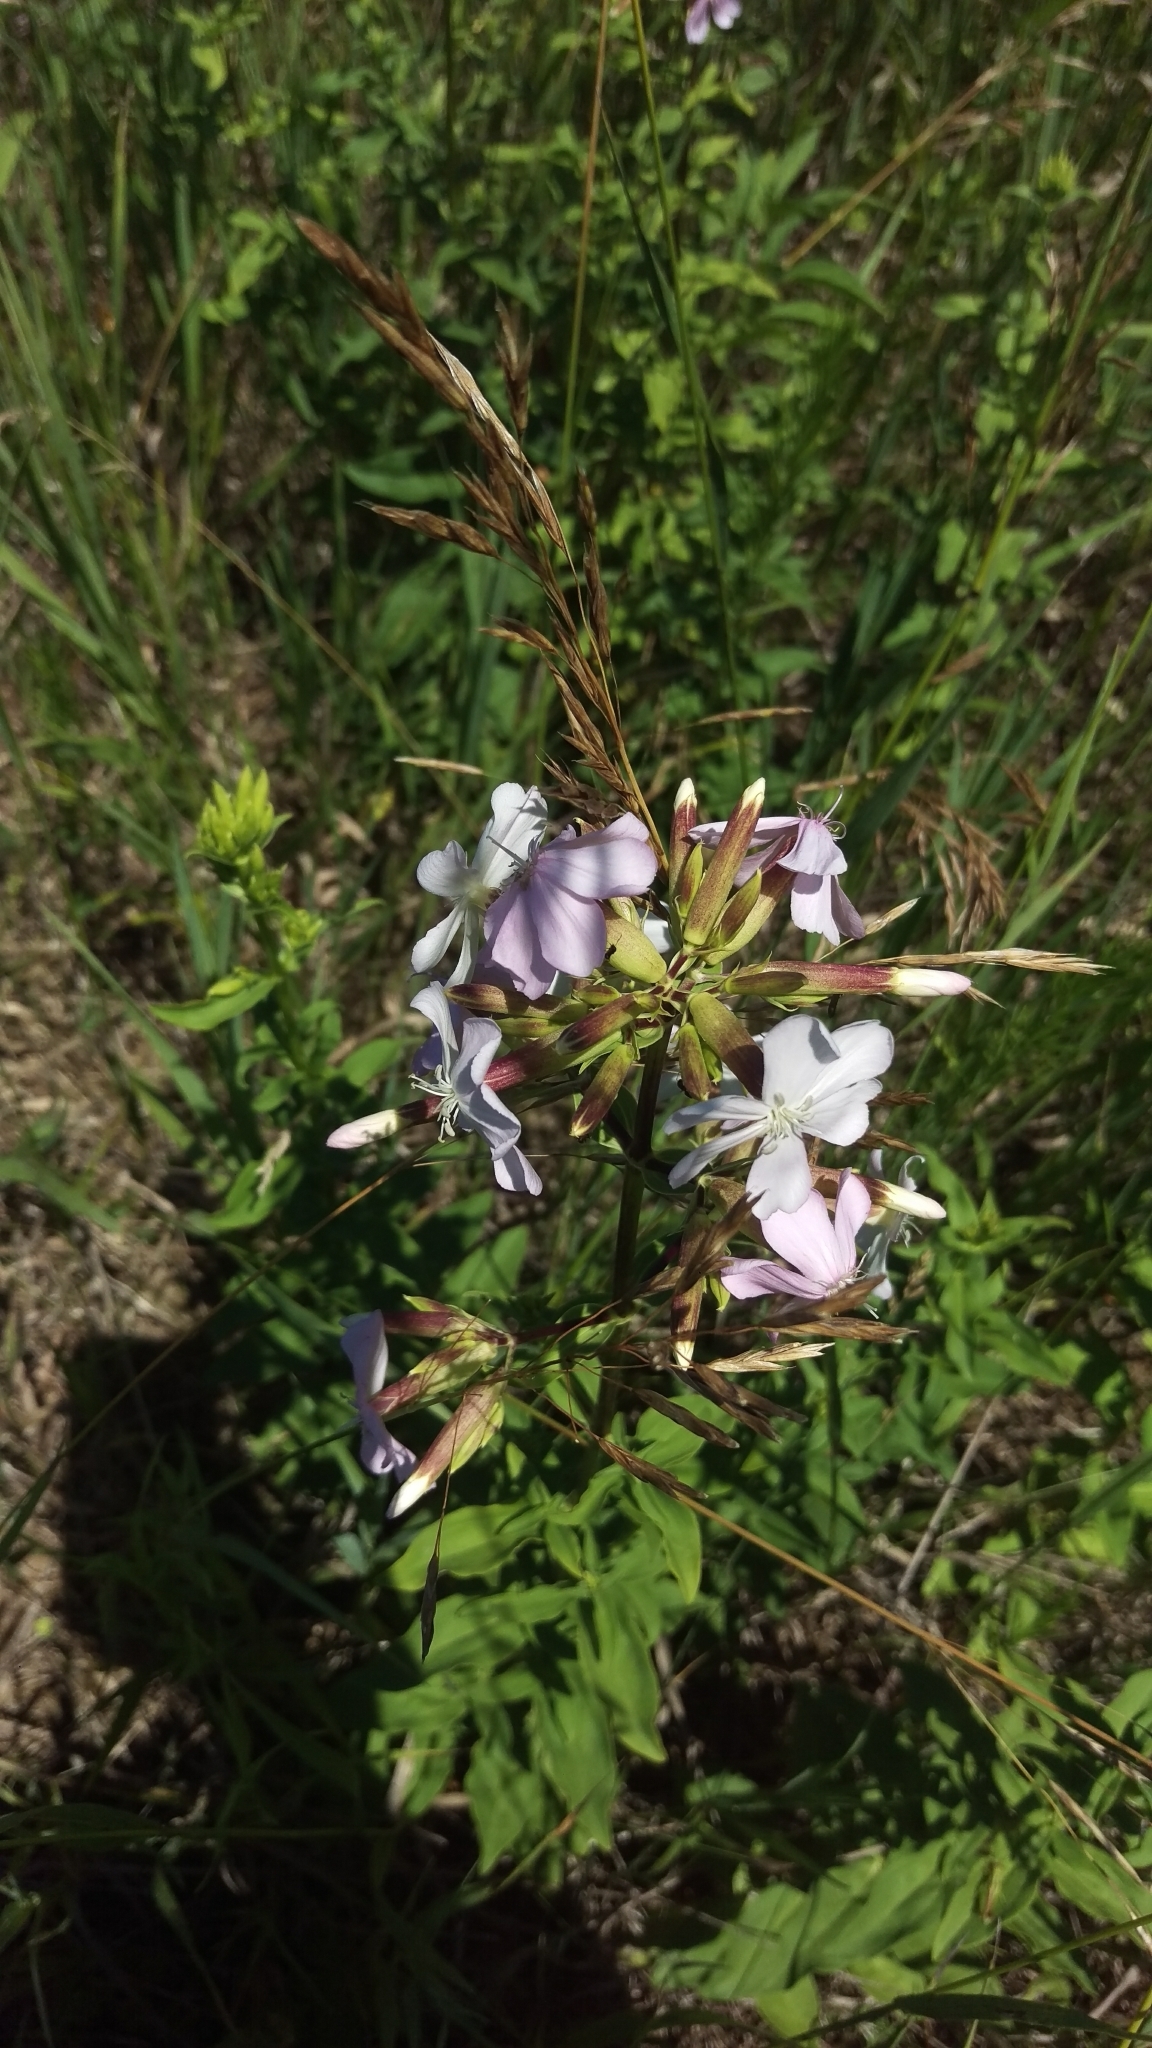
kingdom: Plantae
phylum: Tracheophyta
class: Magnoliopsida
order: Caryophyllales
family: Caryophyllaceae
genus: Saponaria
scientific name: Saponaria officinalis
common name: Soapwort
